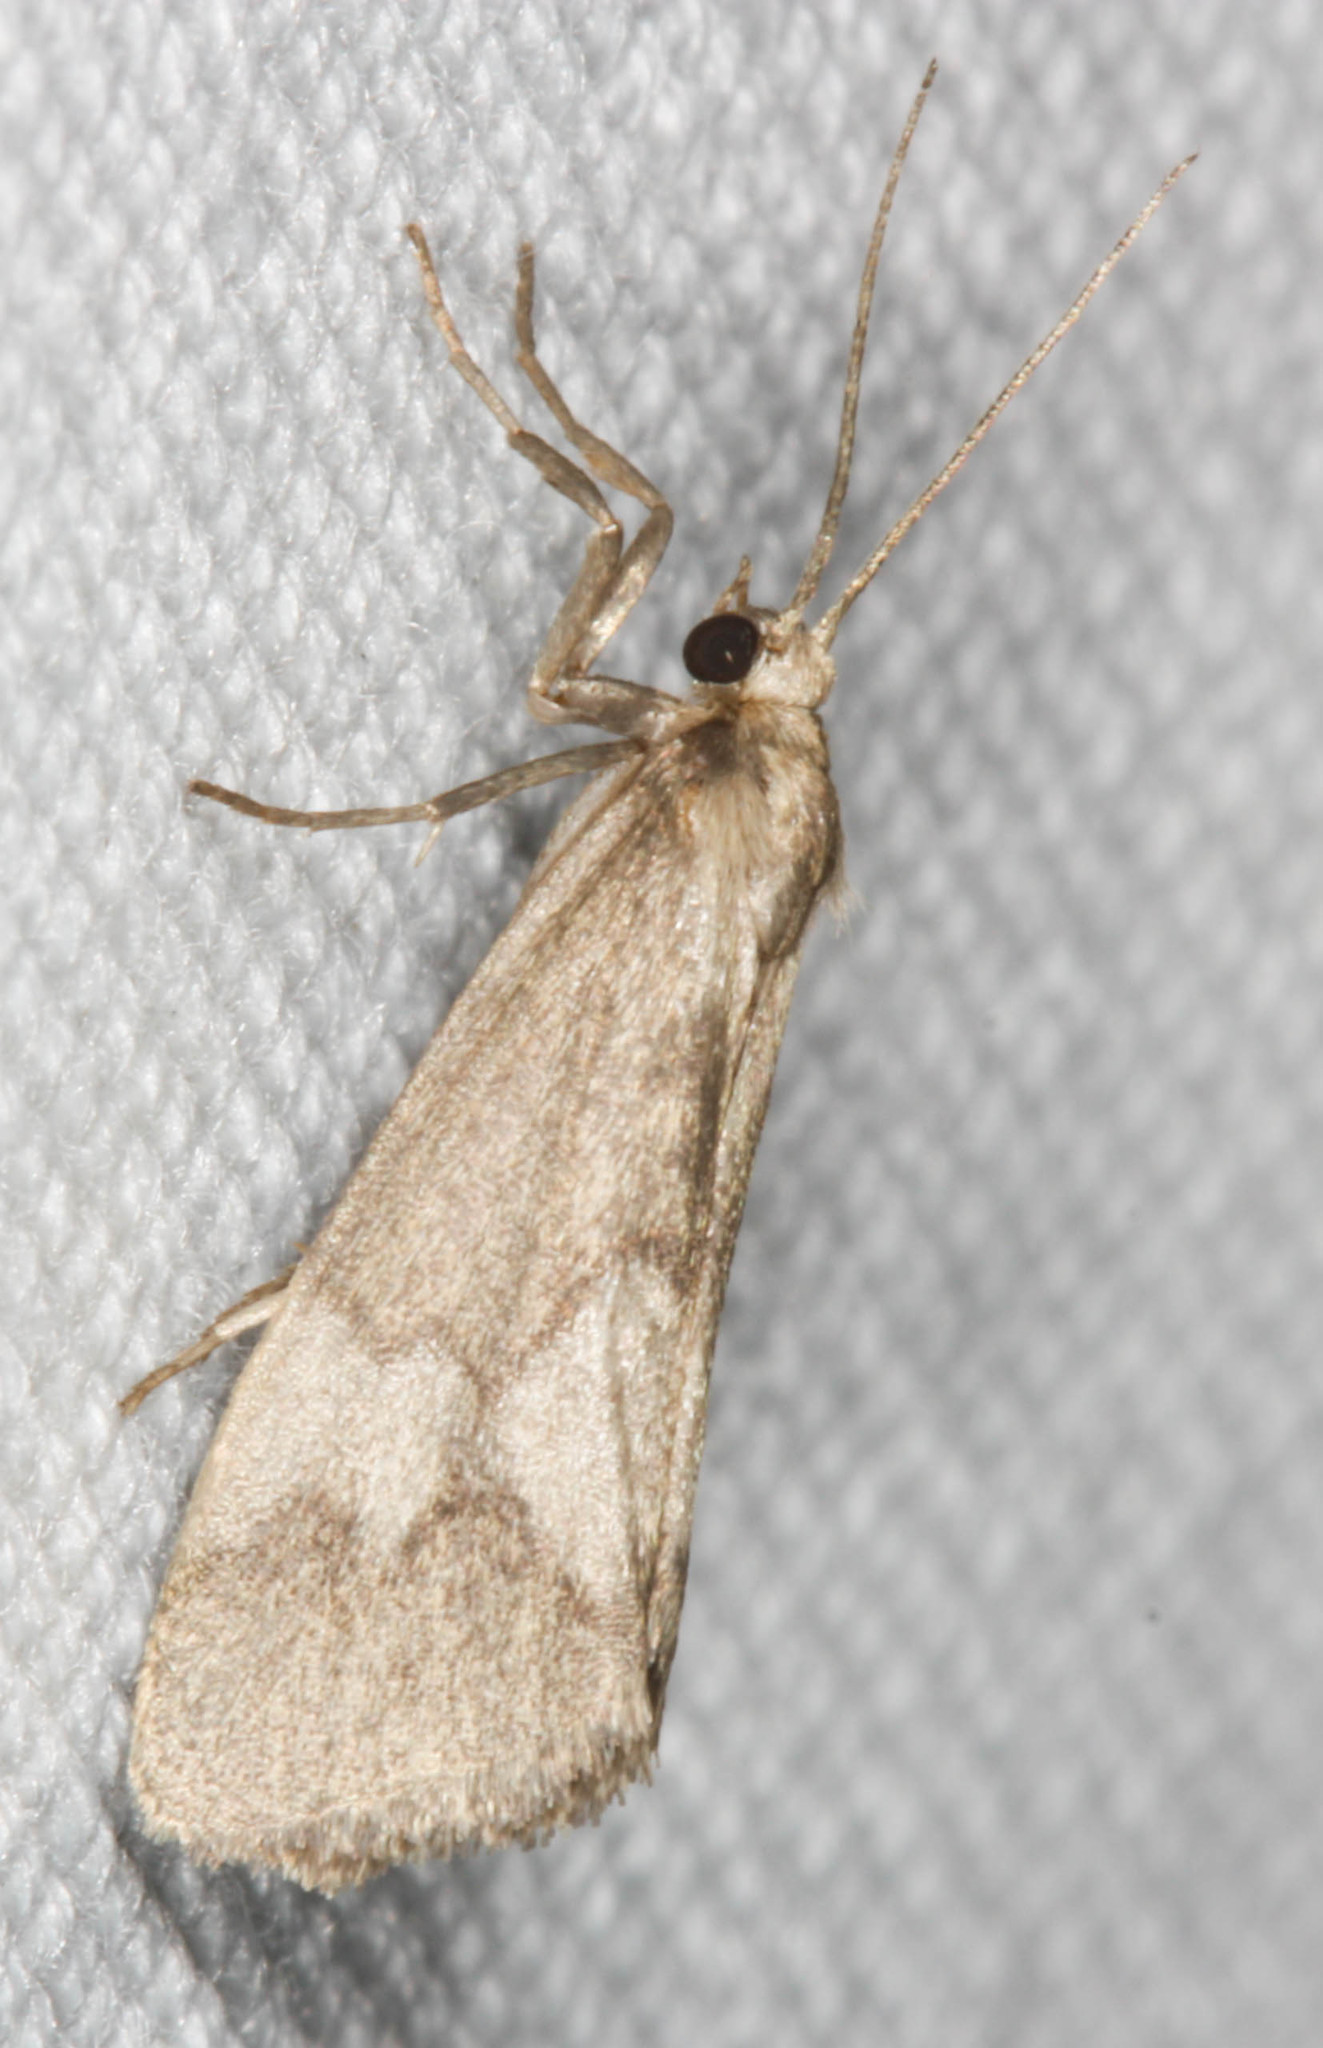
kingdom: Animalia
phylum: Arthropoda
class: Insecta
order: Lepidoptera
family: Erebidae
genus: Cisthene
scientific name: Cisthene faustinula
